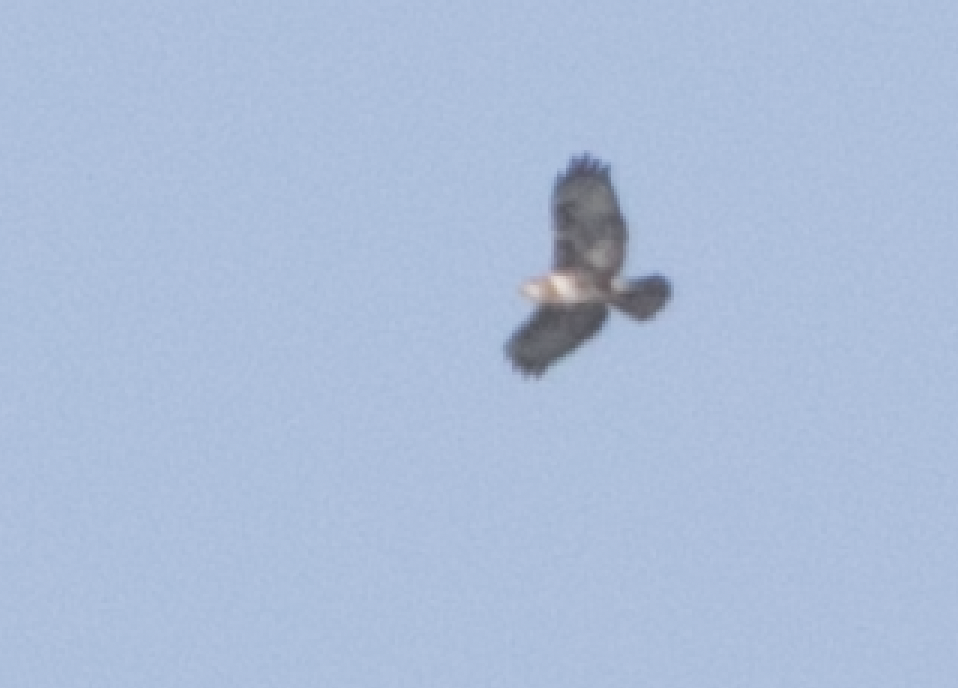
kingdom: Animalia
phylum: Chordata
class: Aves
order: Accipitriformes
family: Accipitridae
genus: Buteo
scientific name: Buteo buteo
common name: Common buzzard
